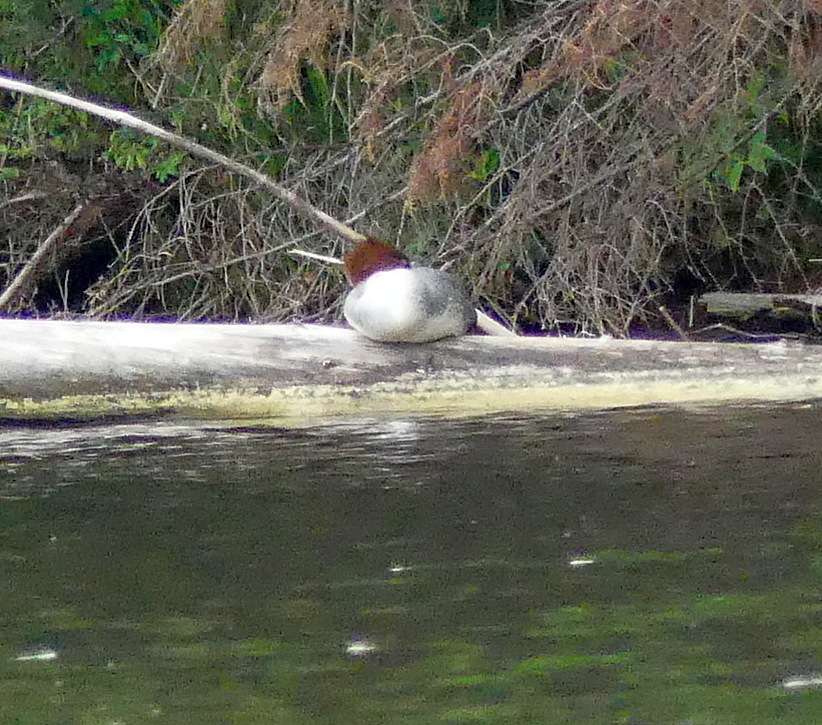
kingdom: Animalia
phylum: Chordata
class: Aves
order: Anseriformes
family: Anatidae
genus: Mergus
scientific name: Mergus merganser
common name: Common merganser
